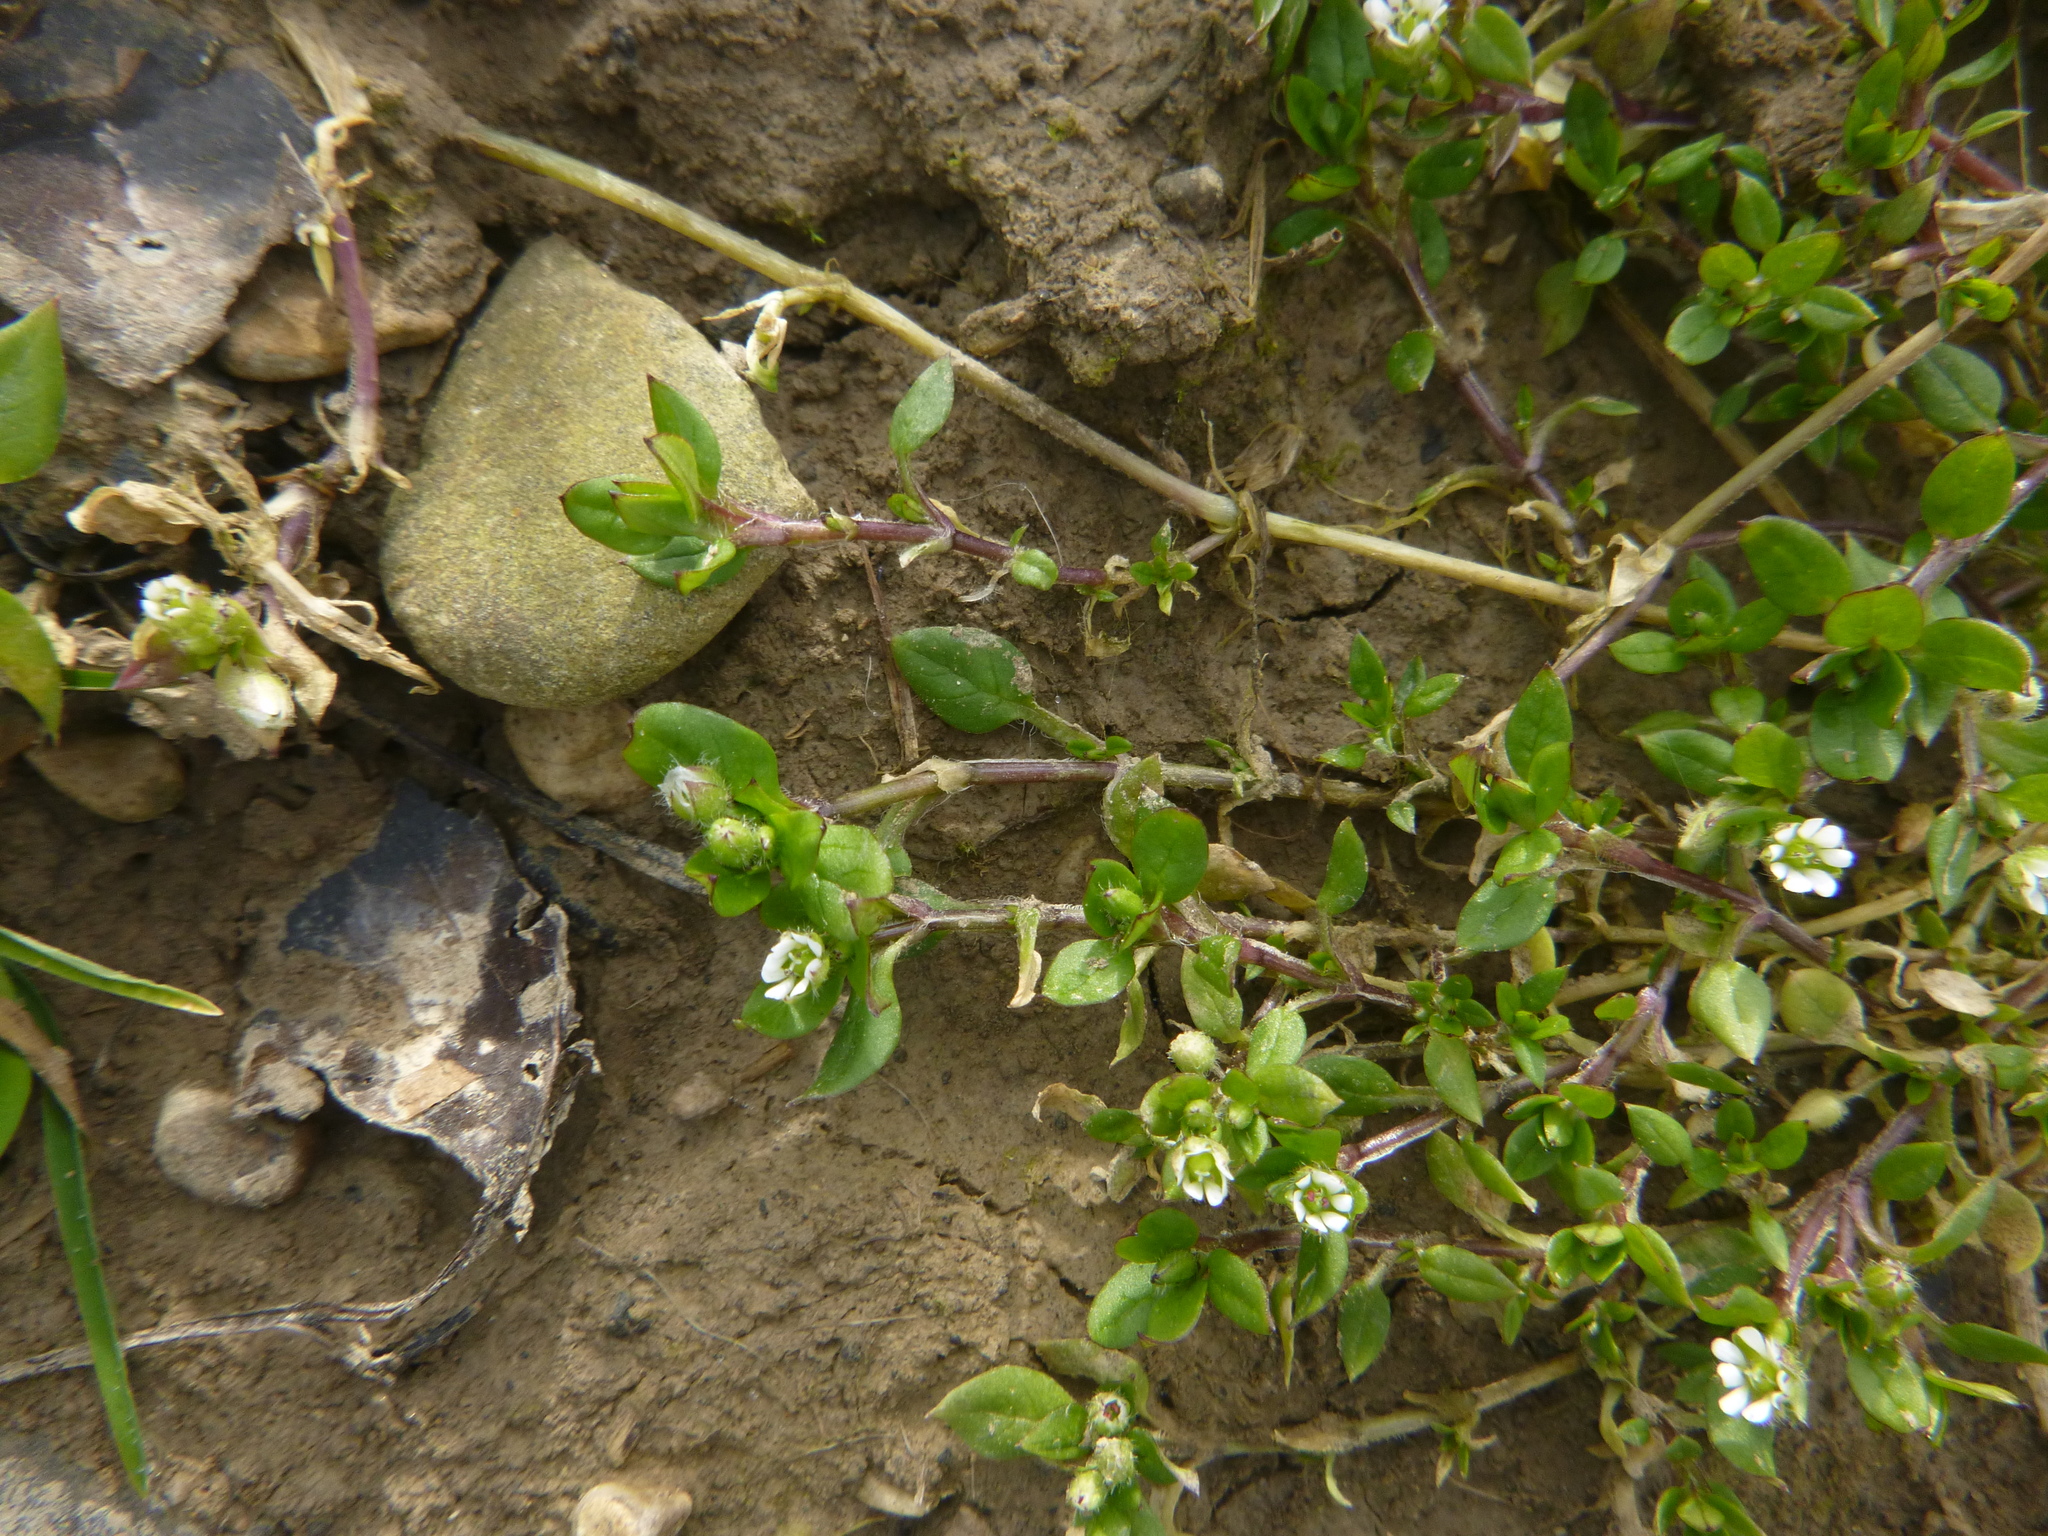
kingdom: Plantae
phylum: Tracheophyta
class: Magnoliopsida
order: Caryophyllales
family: Caryophyllaceae
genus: Stellaria
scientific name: Stellaria media
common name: Common chickweed
